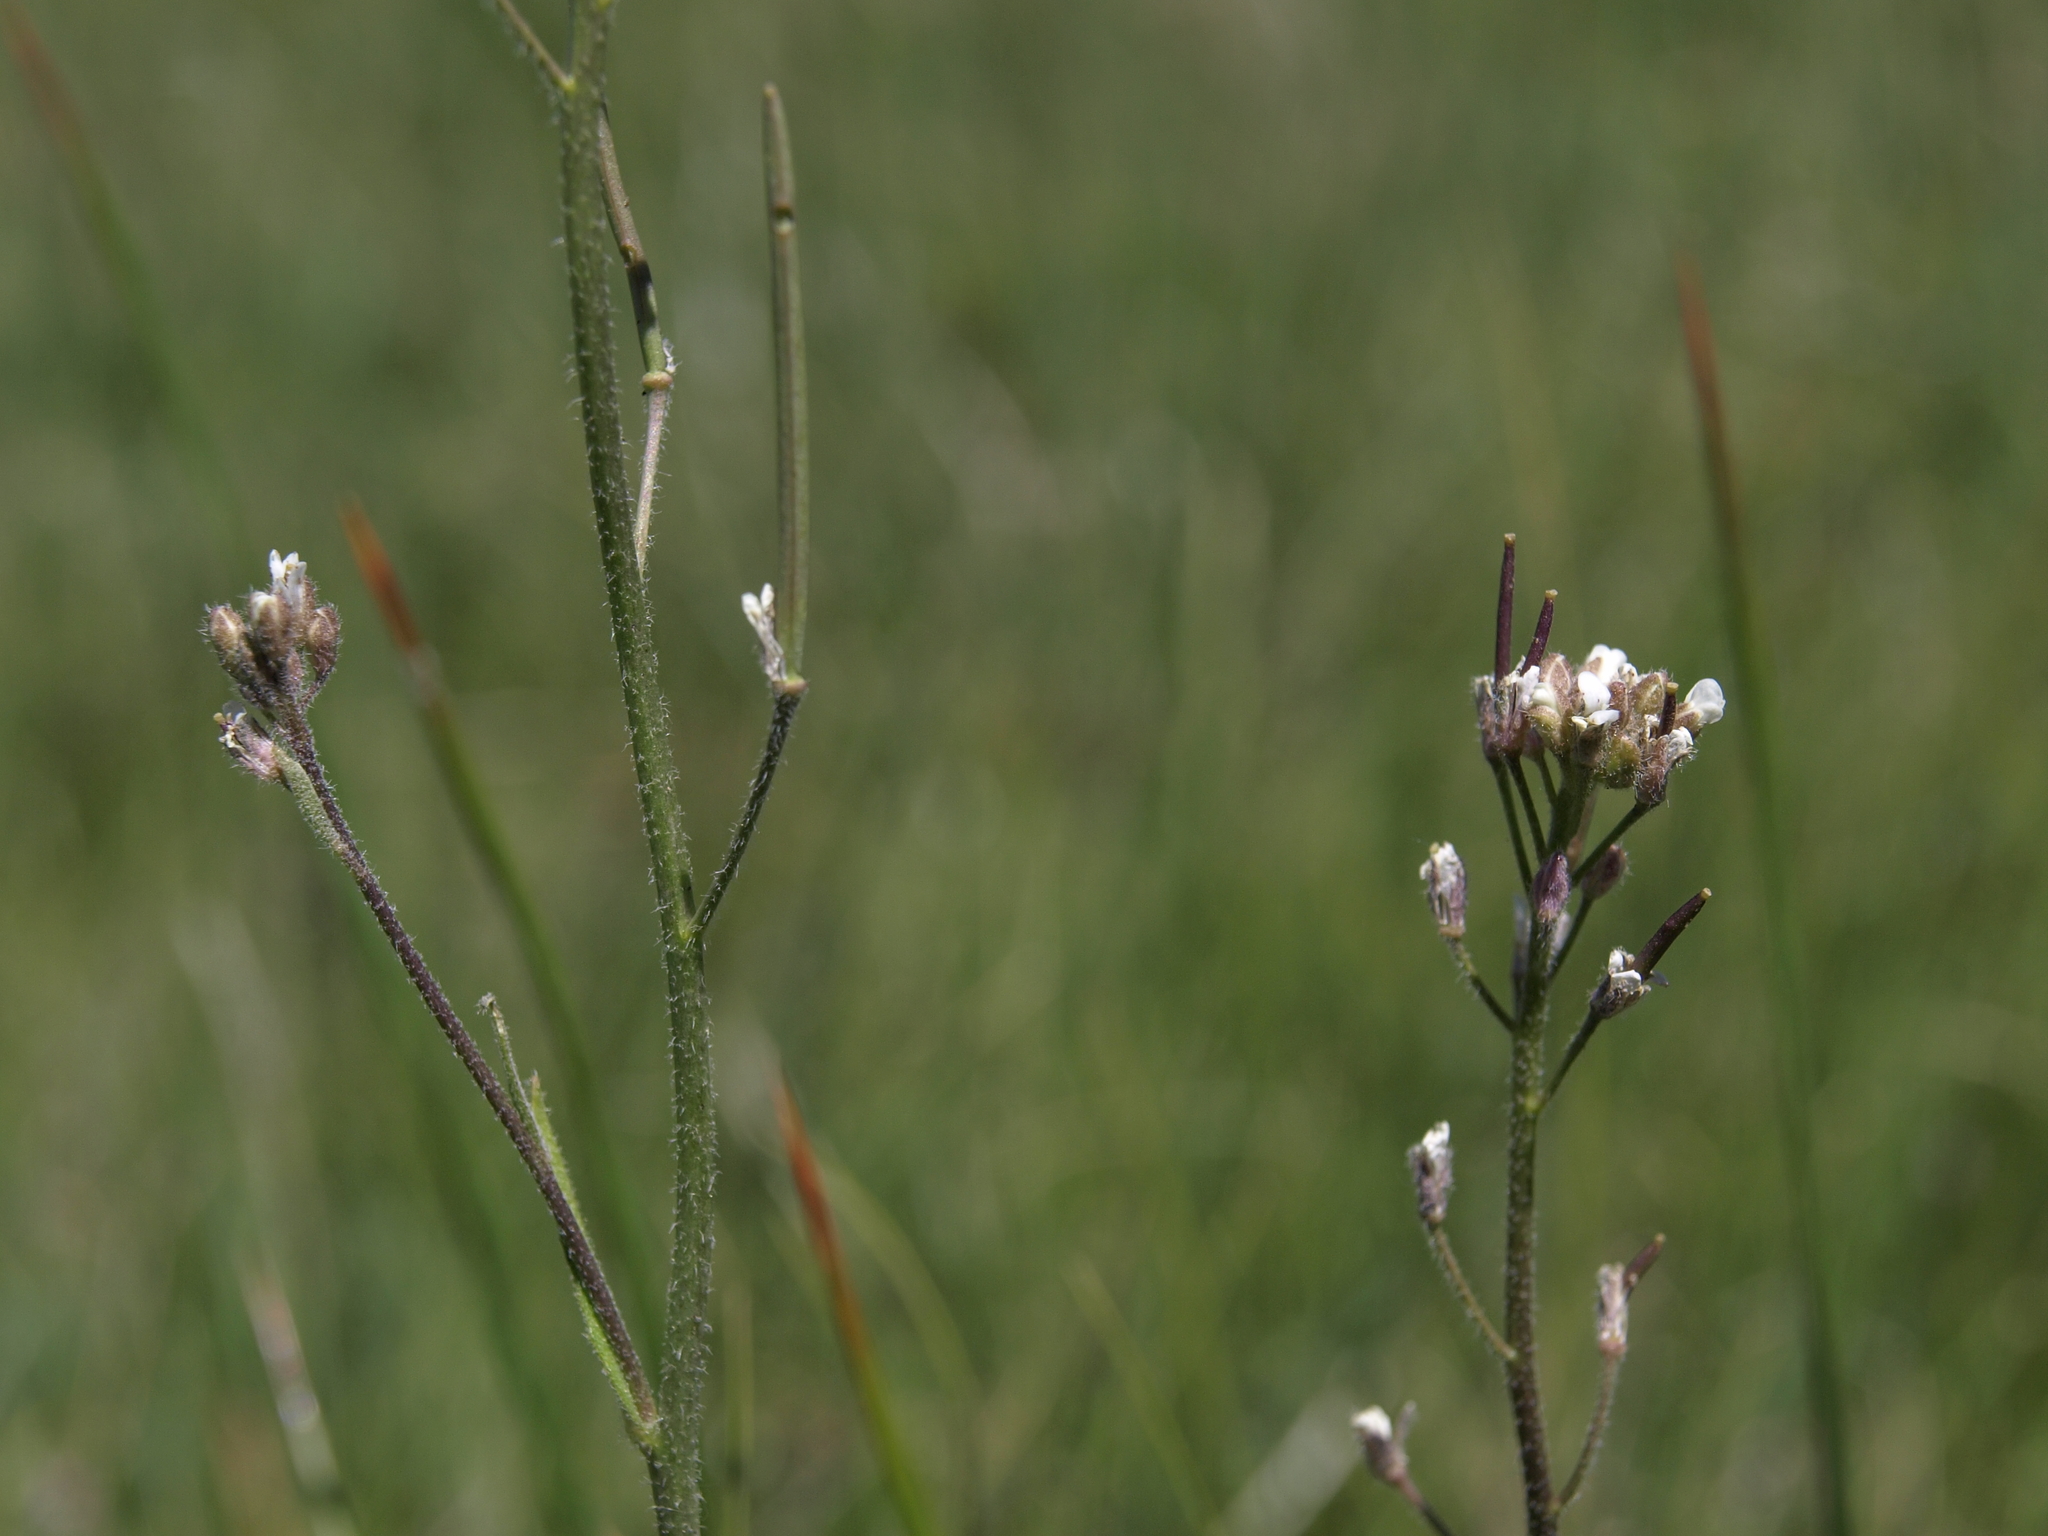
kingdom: Plantae
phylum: Tracheophyta
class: Magnoliopsida
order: Brassicales
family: Brassicaceae
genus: Crucihimalaya
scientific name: Crucihimalaya virgata
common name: Rod halimolobos
